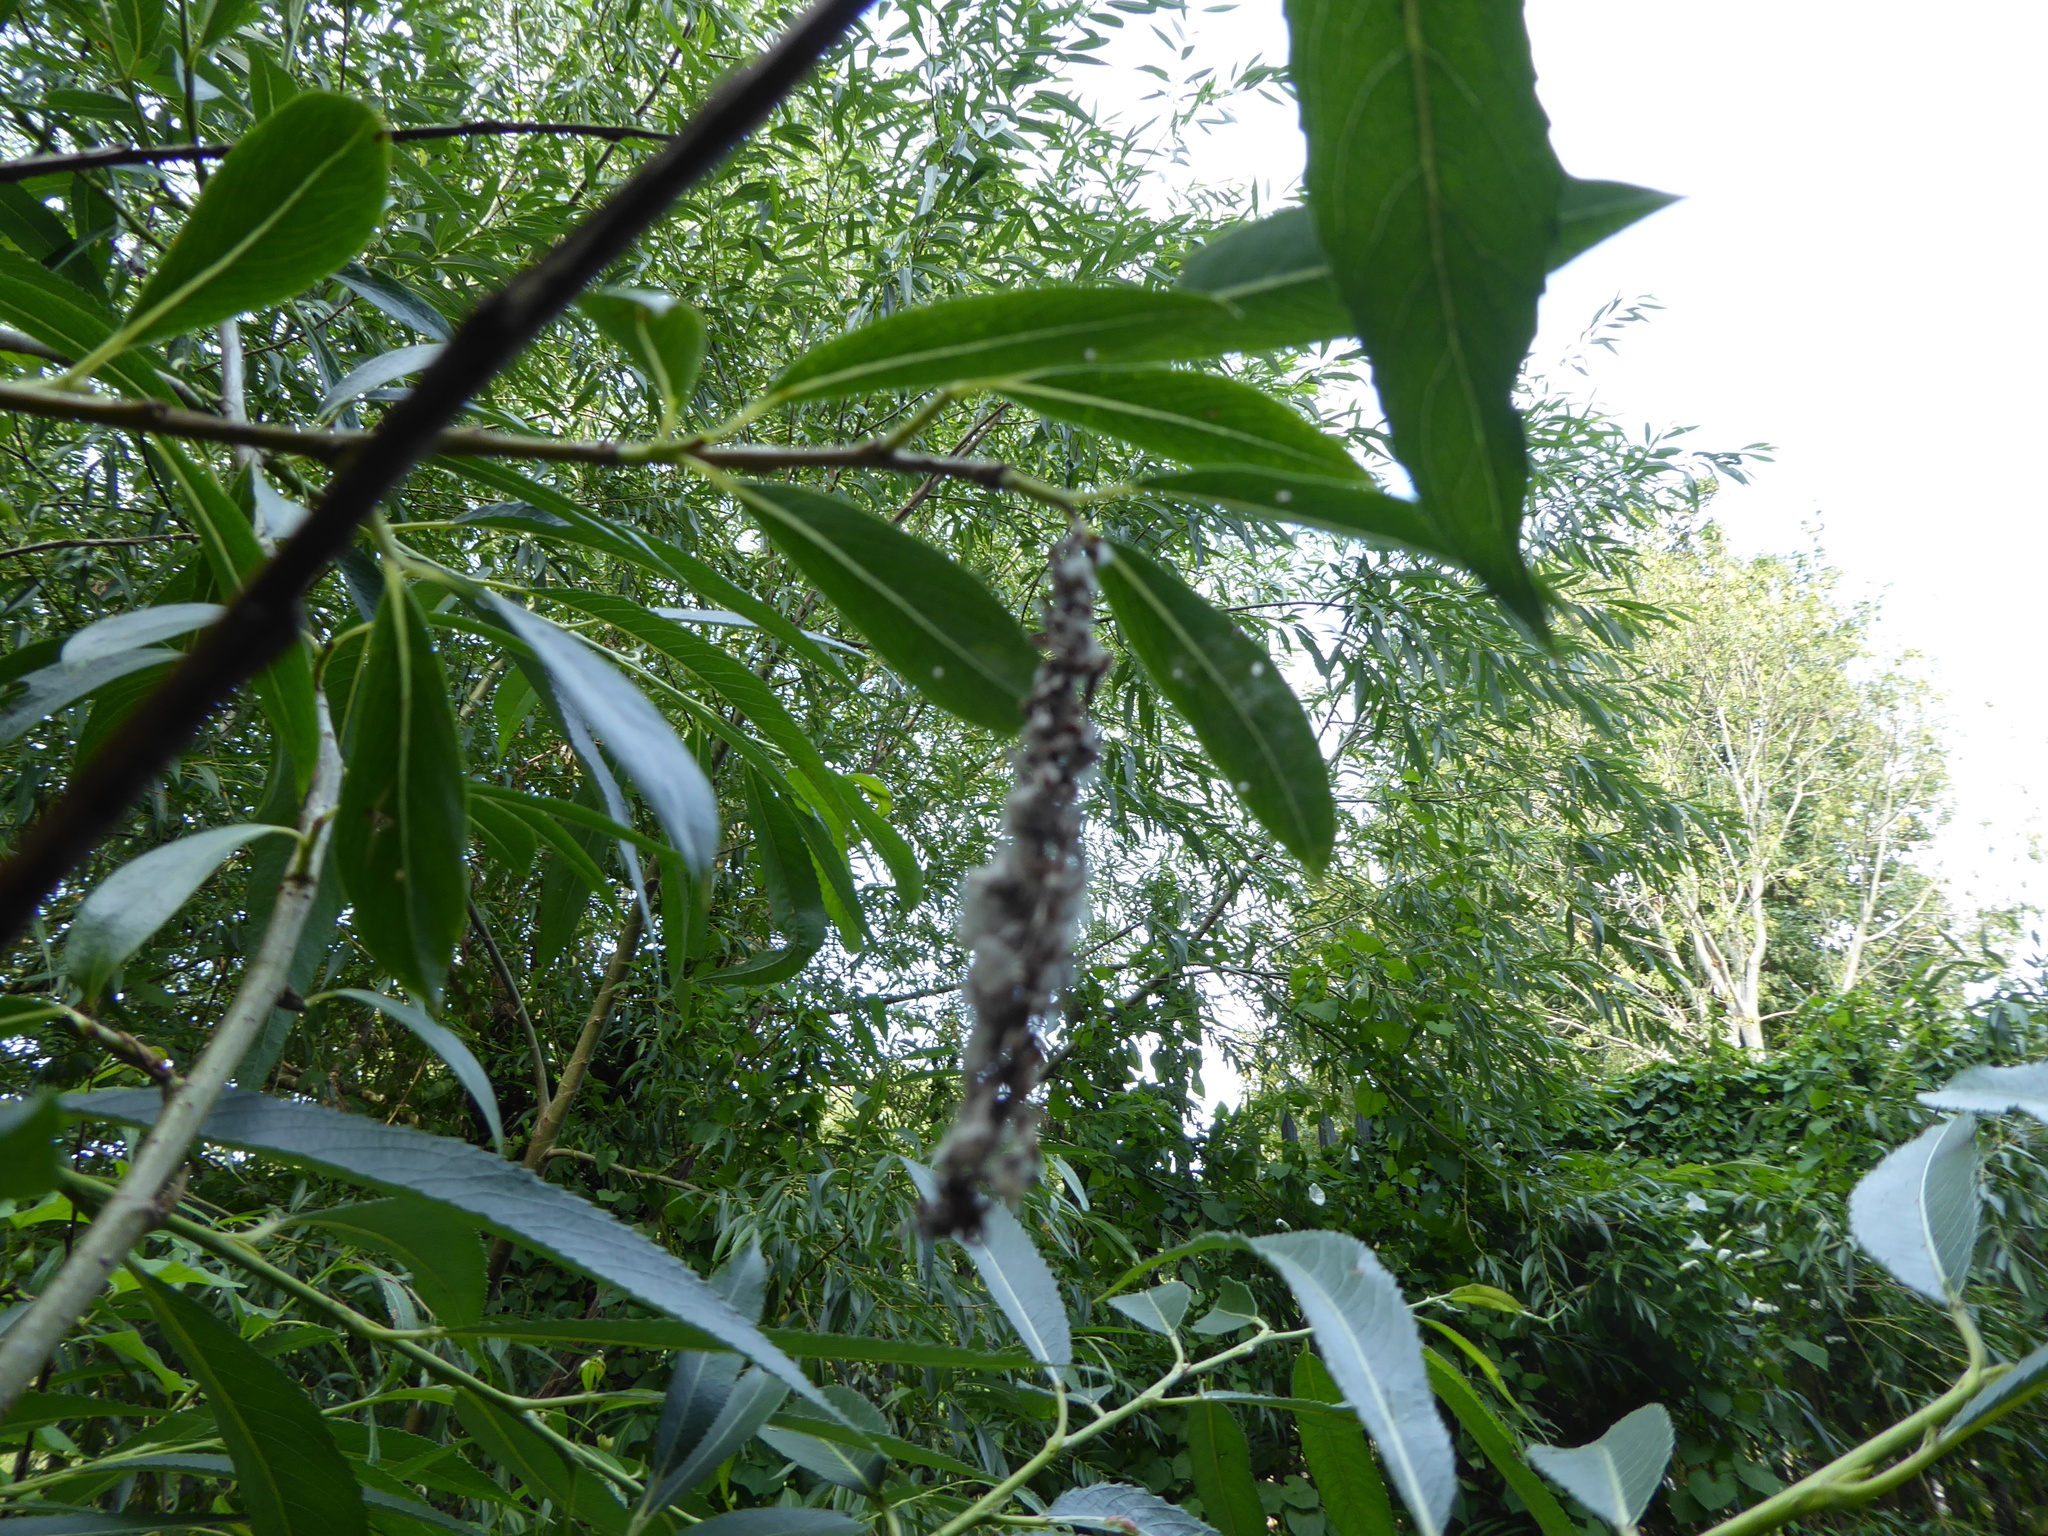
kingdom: Plantae
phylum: Tracheophyta
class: Magnoliopsida
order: Malpighiales
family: Salicaceae
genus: Salix
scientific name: Salix fragilis
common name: Crack willow
